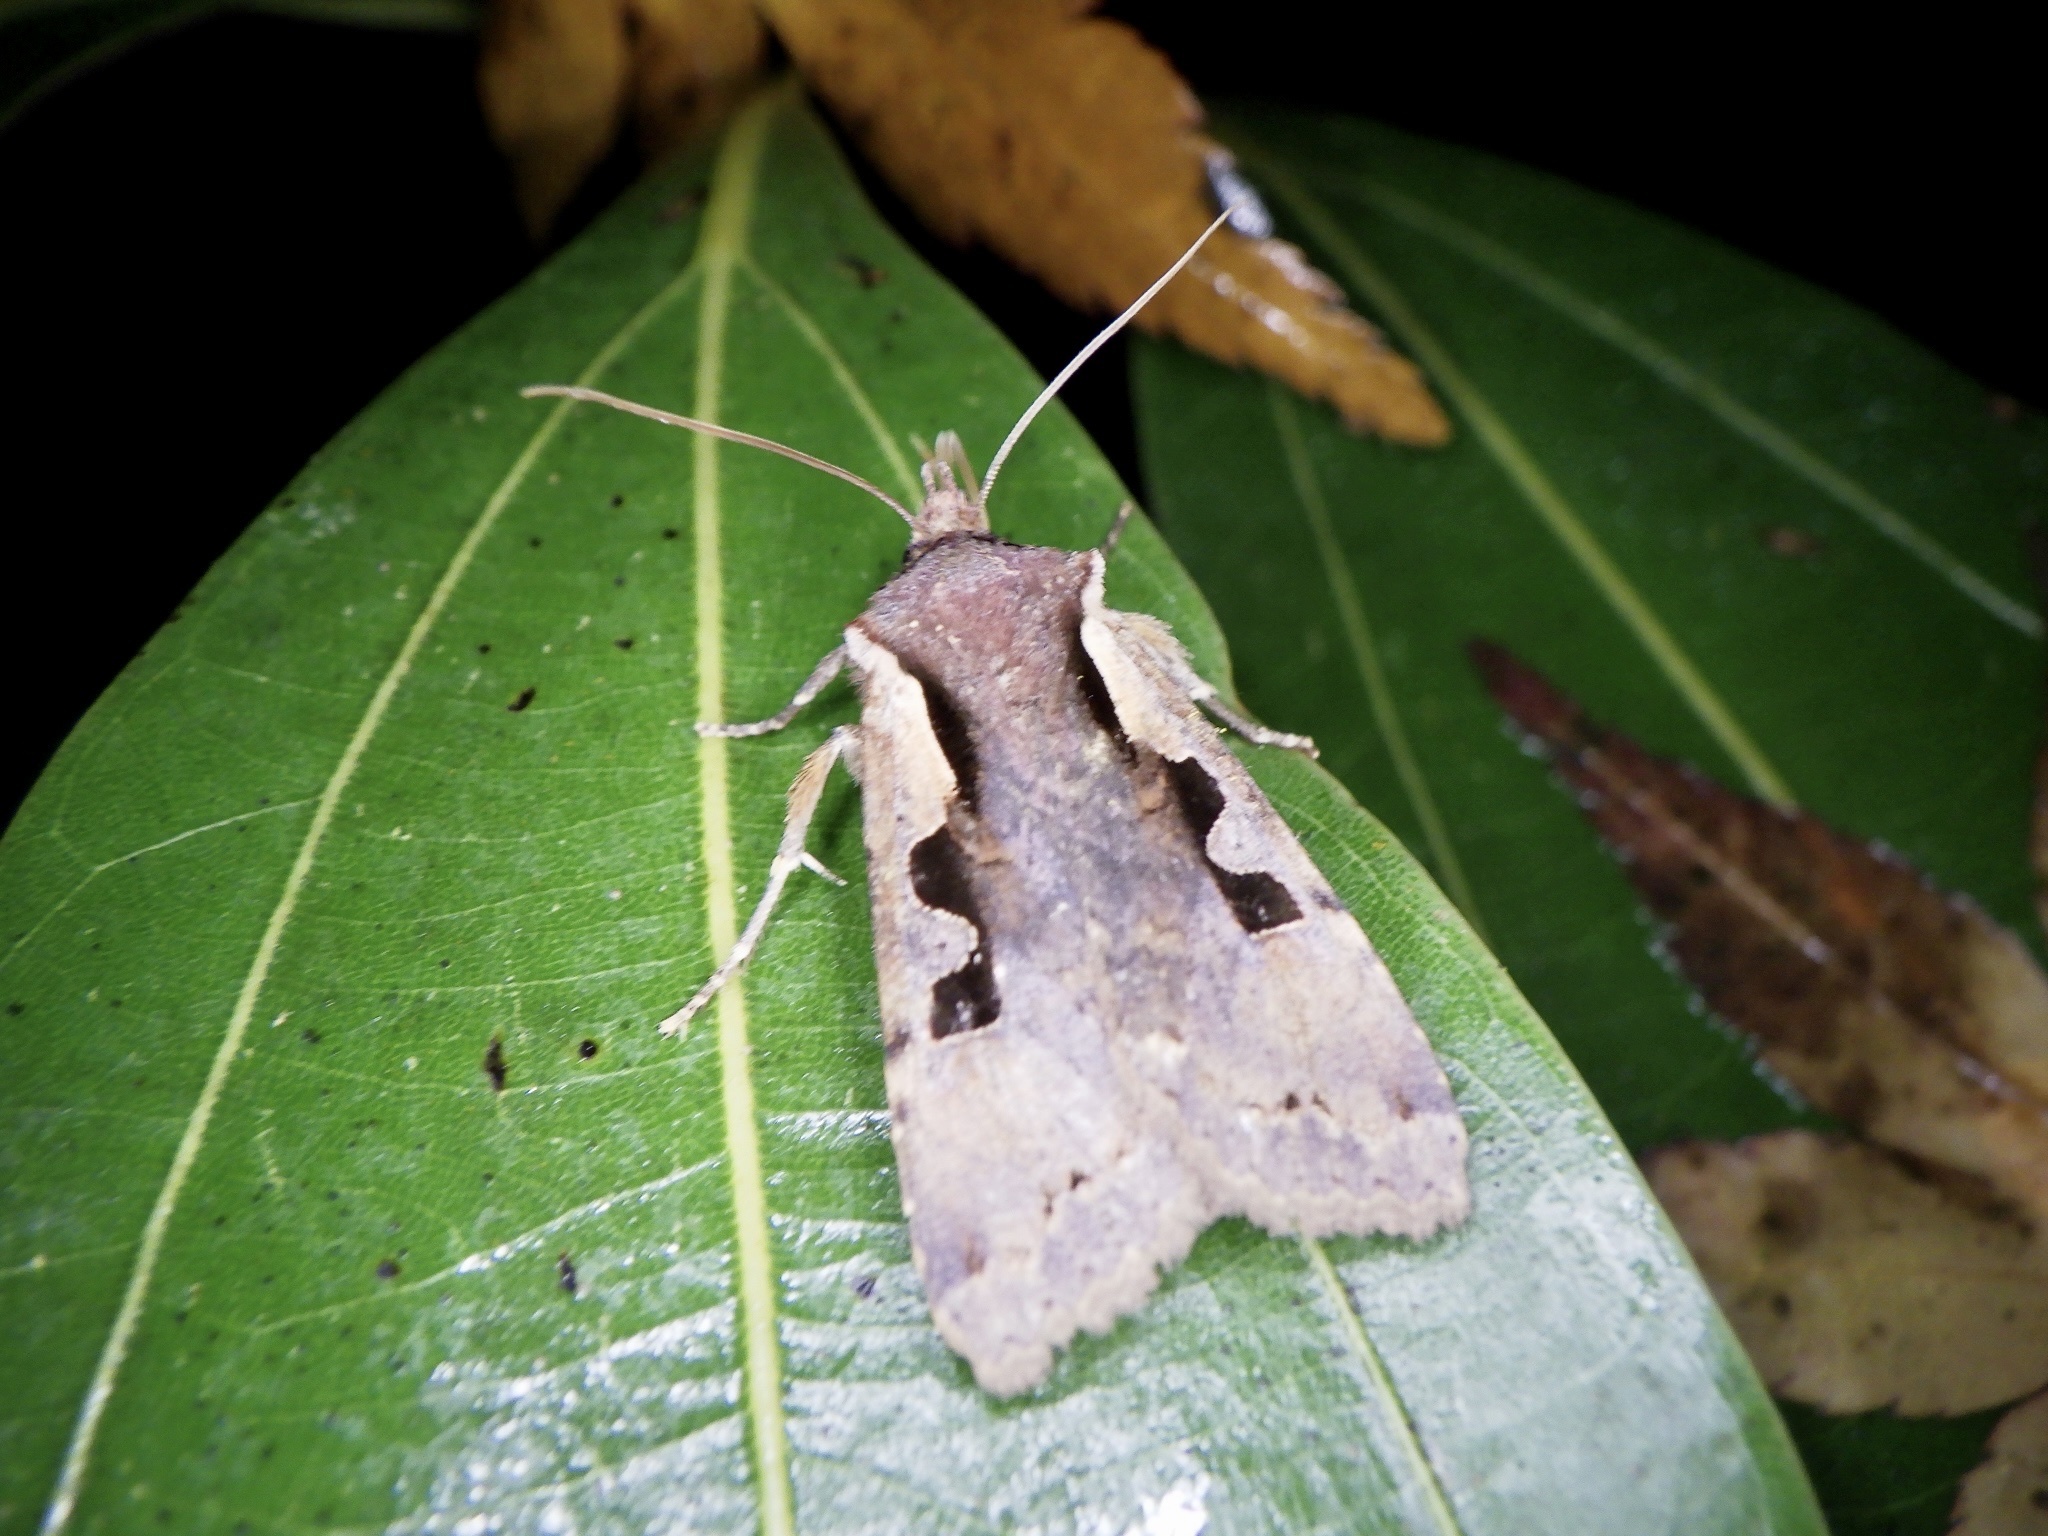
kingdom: Animalia
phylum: Arthropoda
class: Insecta
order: Lepidoptera
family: Noctuidae
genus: Sugitania
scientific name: Sugitania lepida
